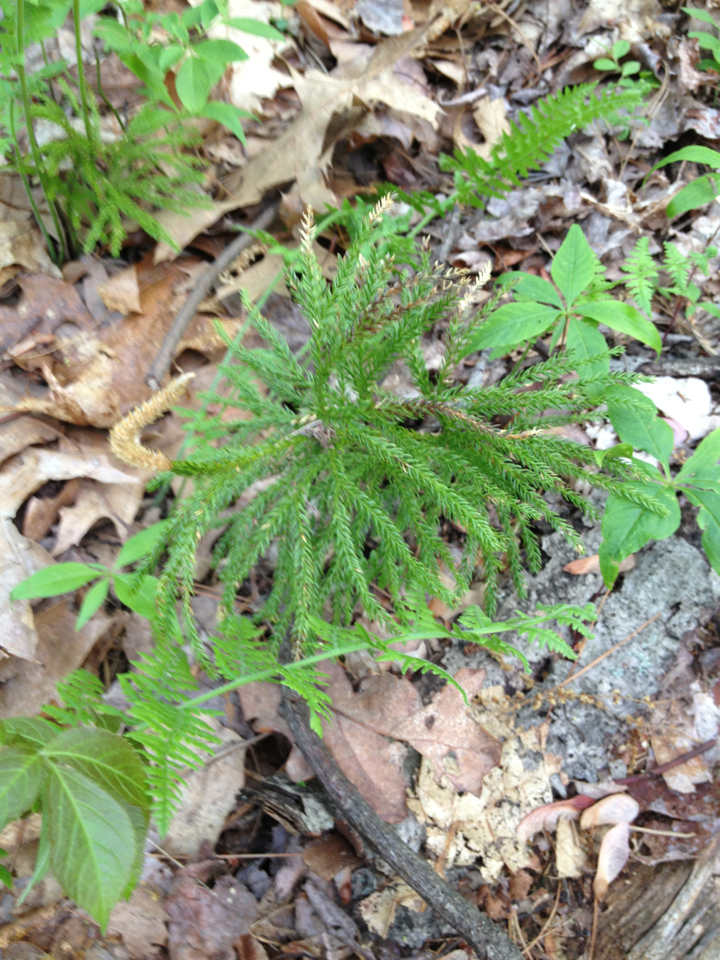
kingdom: Plantae
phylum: Tracheophyta
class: Lycopodiopsida
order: Lycopodiales
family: Lycopodiaceae
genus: Dendrolycopodium
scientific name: Dendrolycopodium obscurum
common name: Common ground-pine
